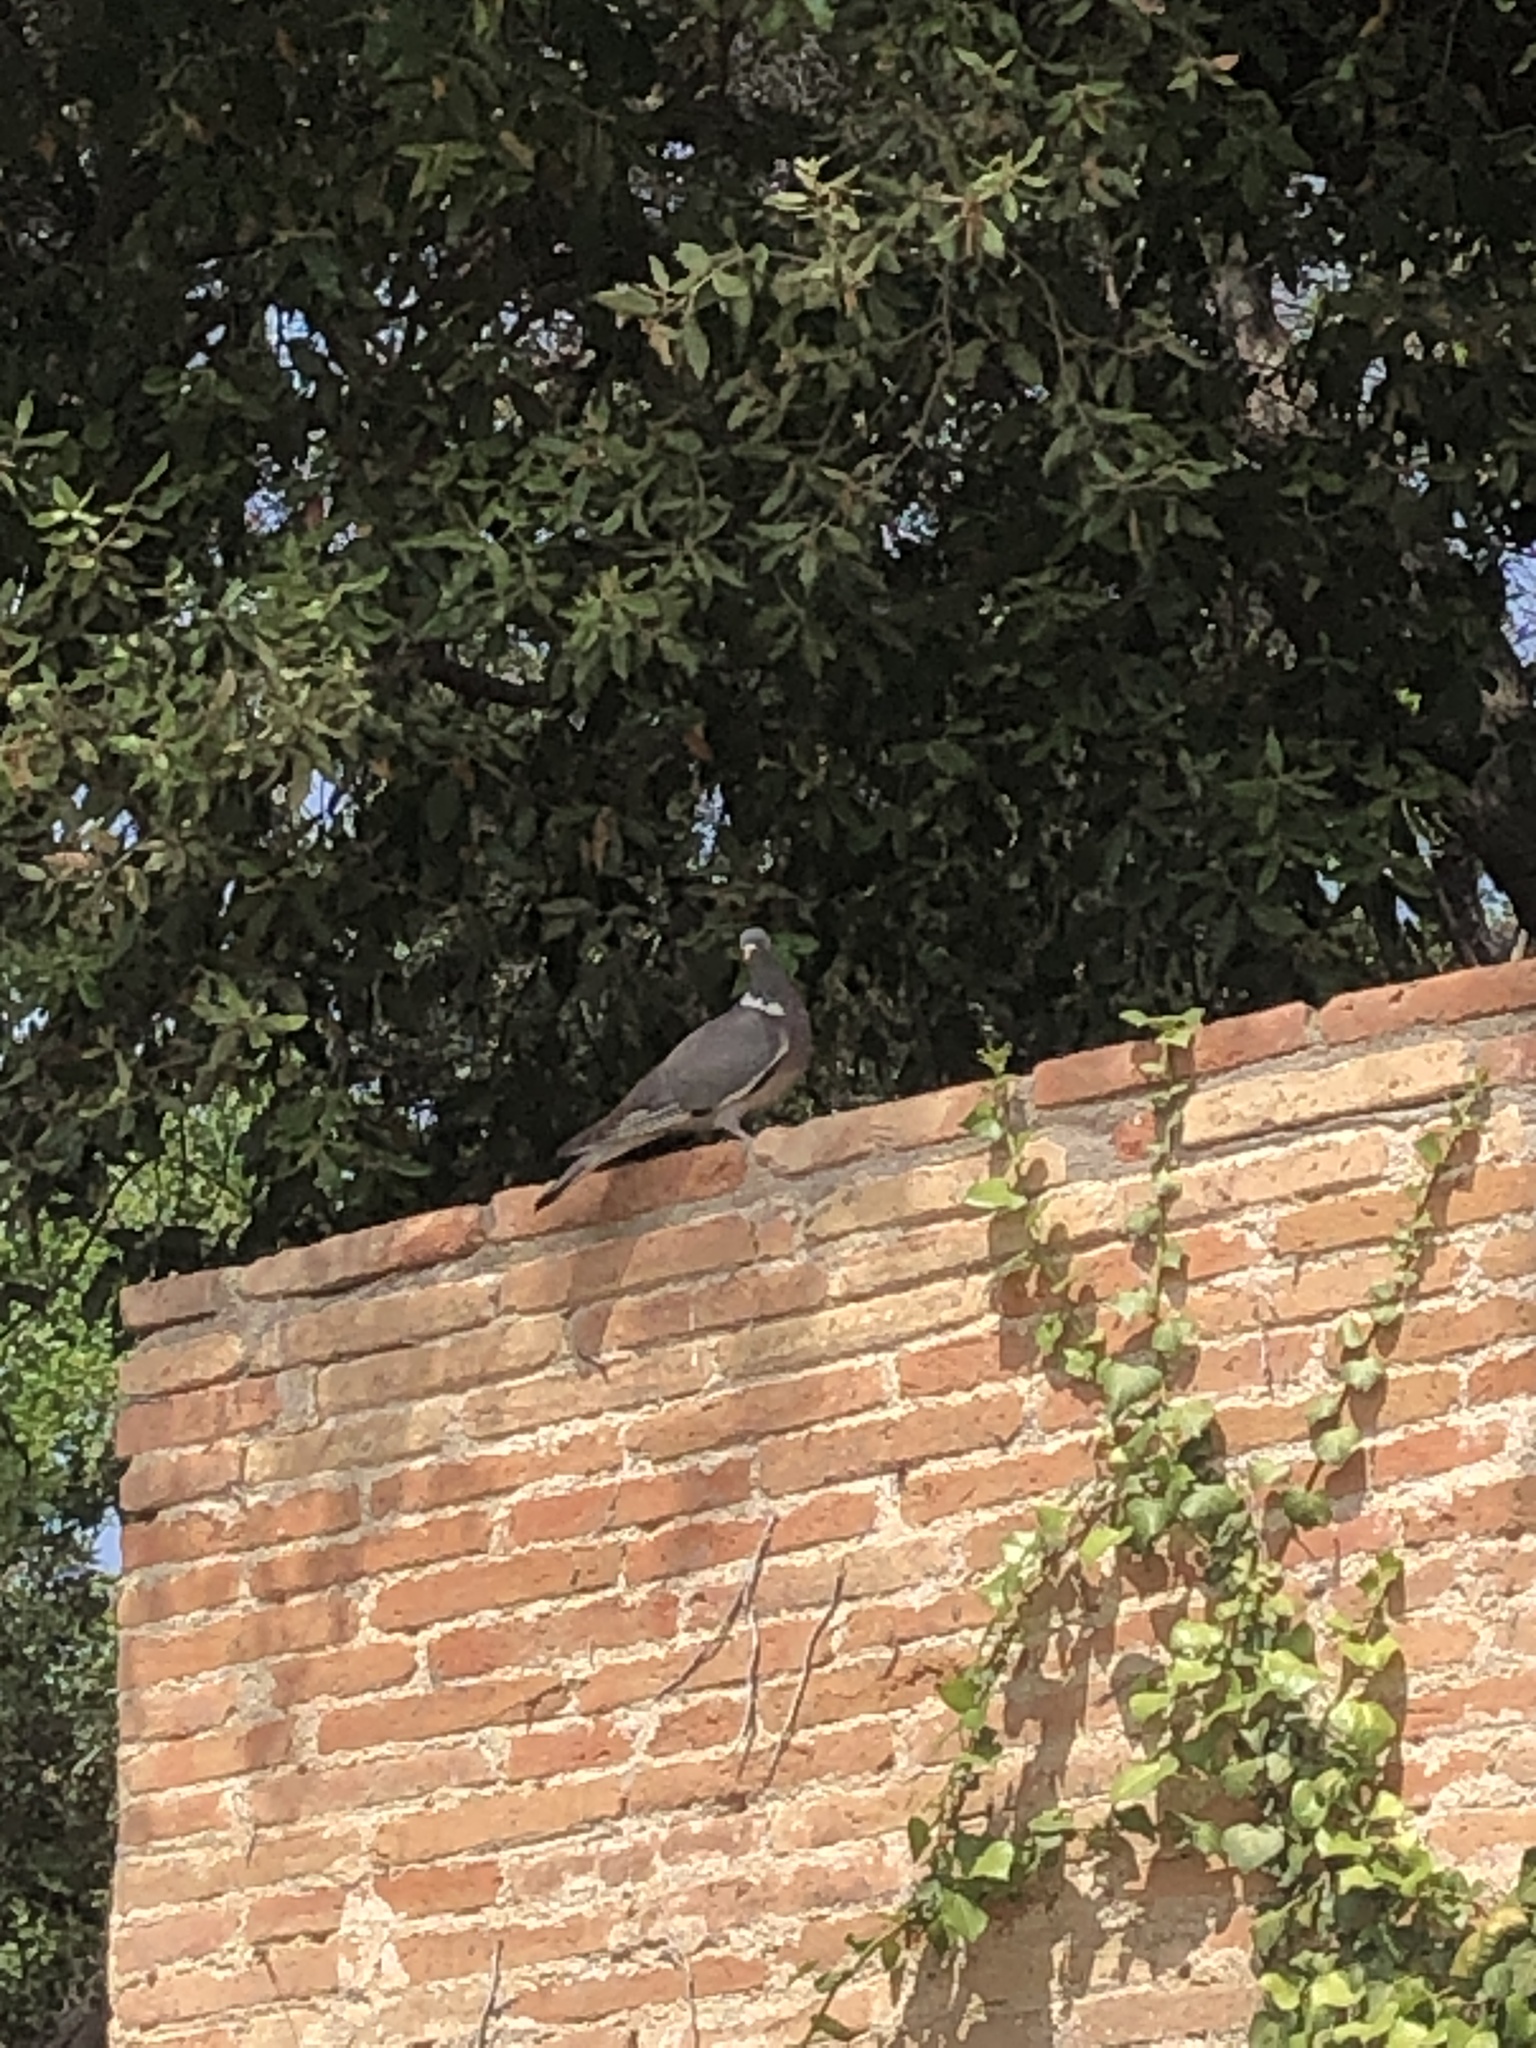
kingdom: Animalia
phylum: Chordata
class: Aves
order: Columbiformes
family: Columbidae
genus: Columba
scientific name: Columba palumbus
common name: Common wood pigeon
